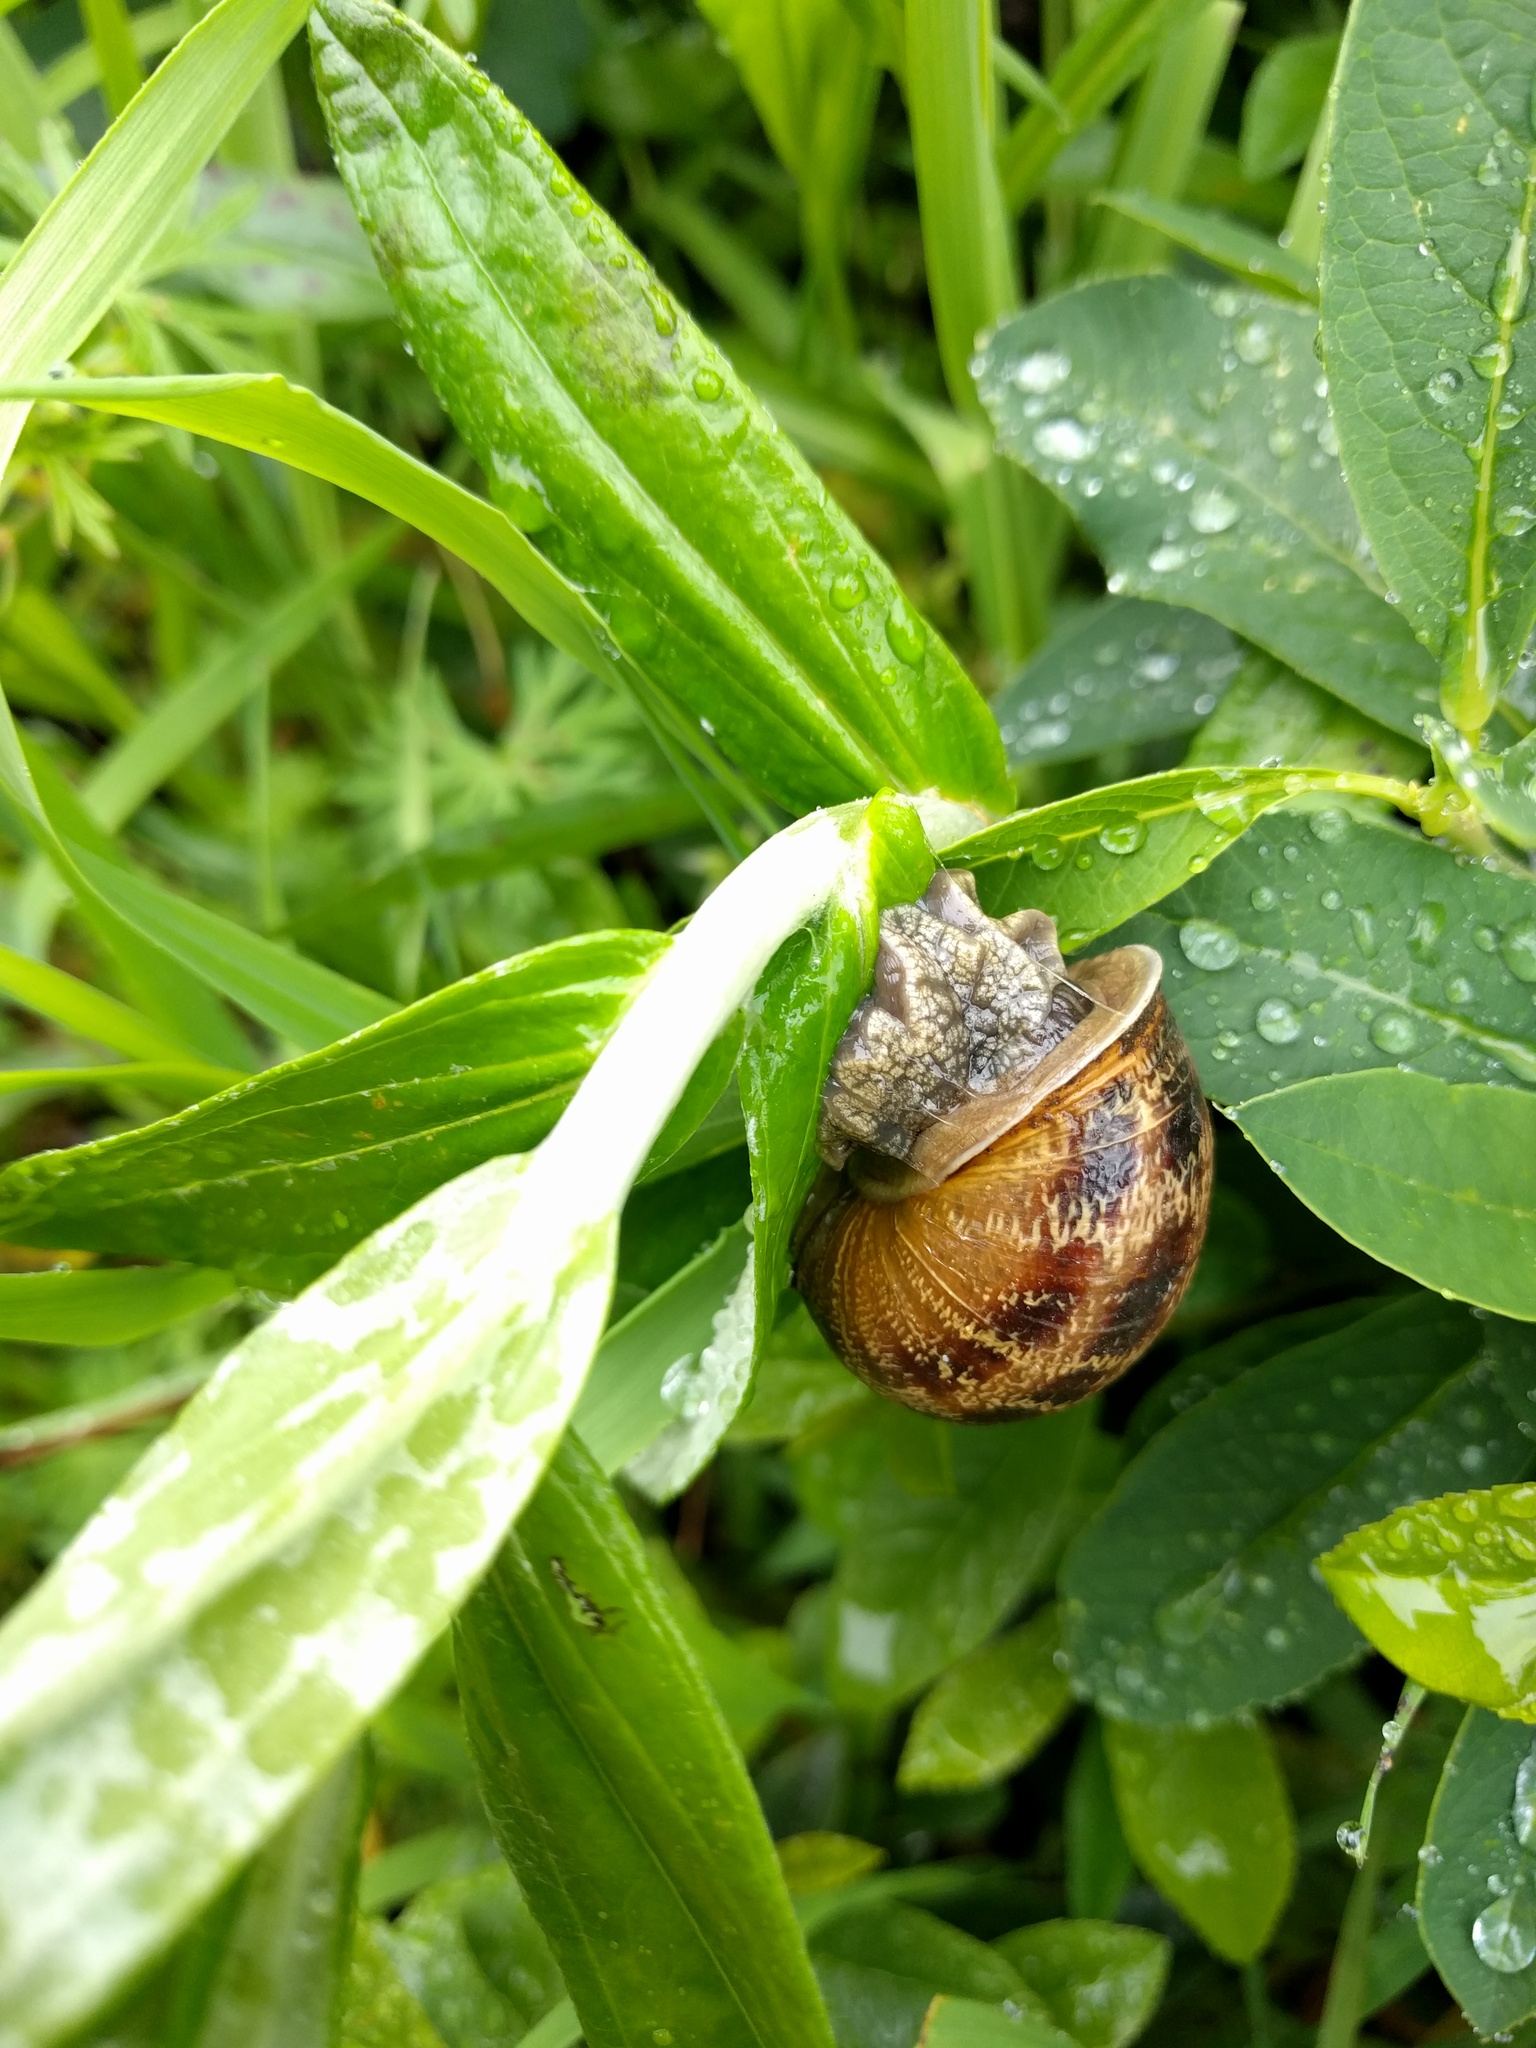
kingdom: Animalia
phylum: Mollusca
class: Gastropoda
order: Stylommatophora
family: Helicidae
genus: Cornu
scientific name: Cornu aspersum
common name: Brown garden snail
